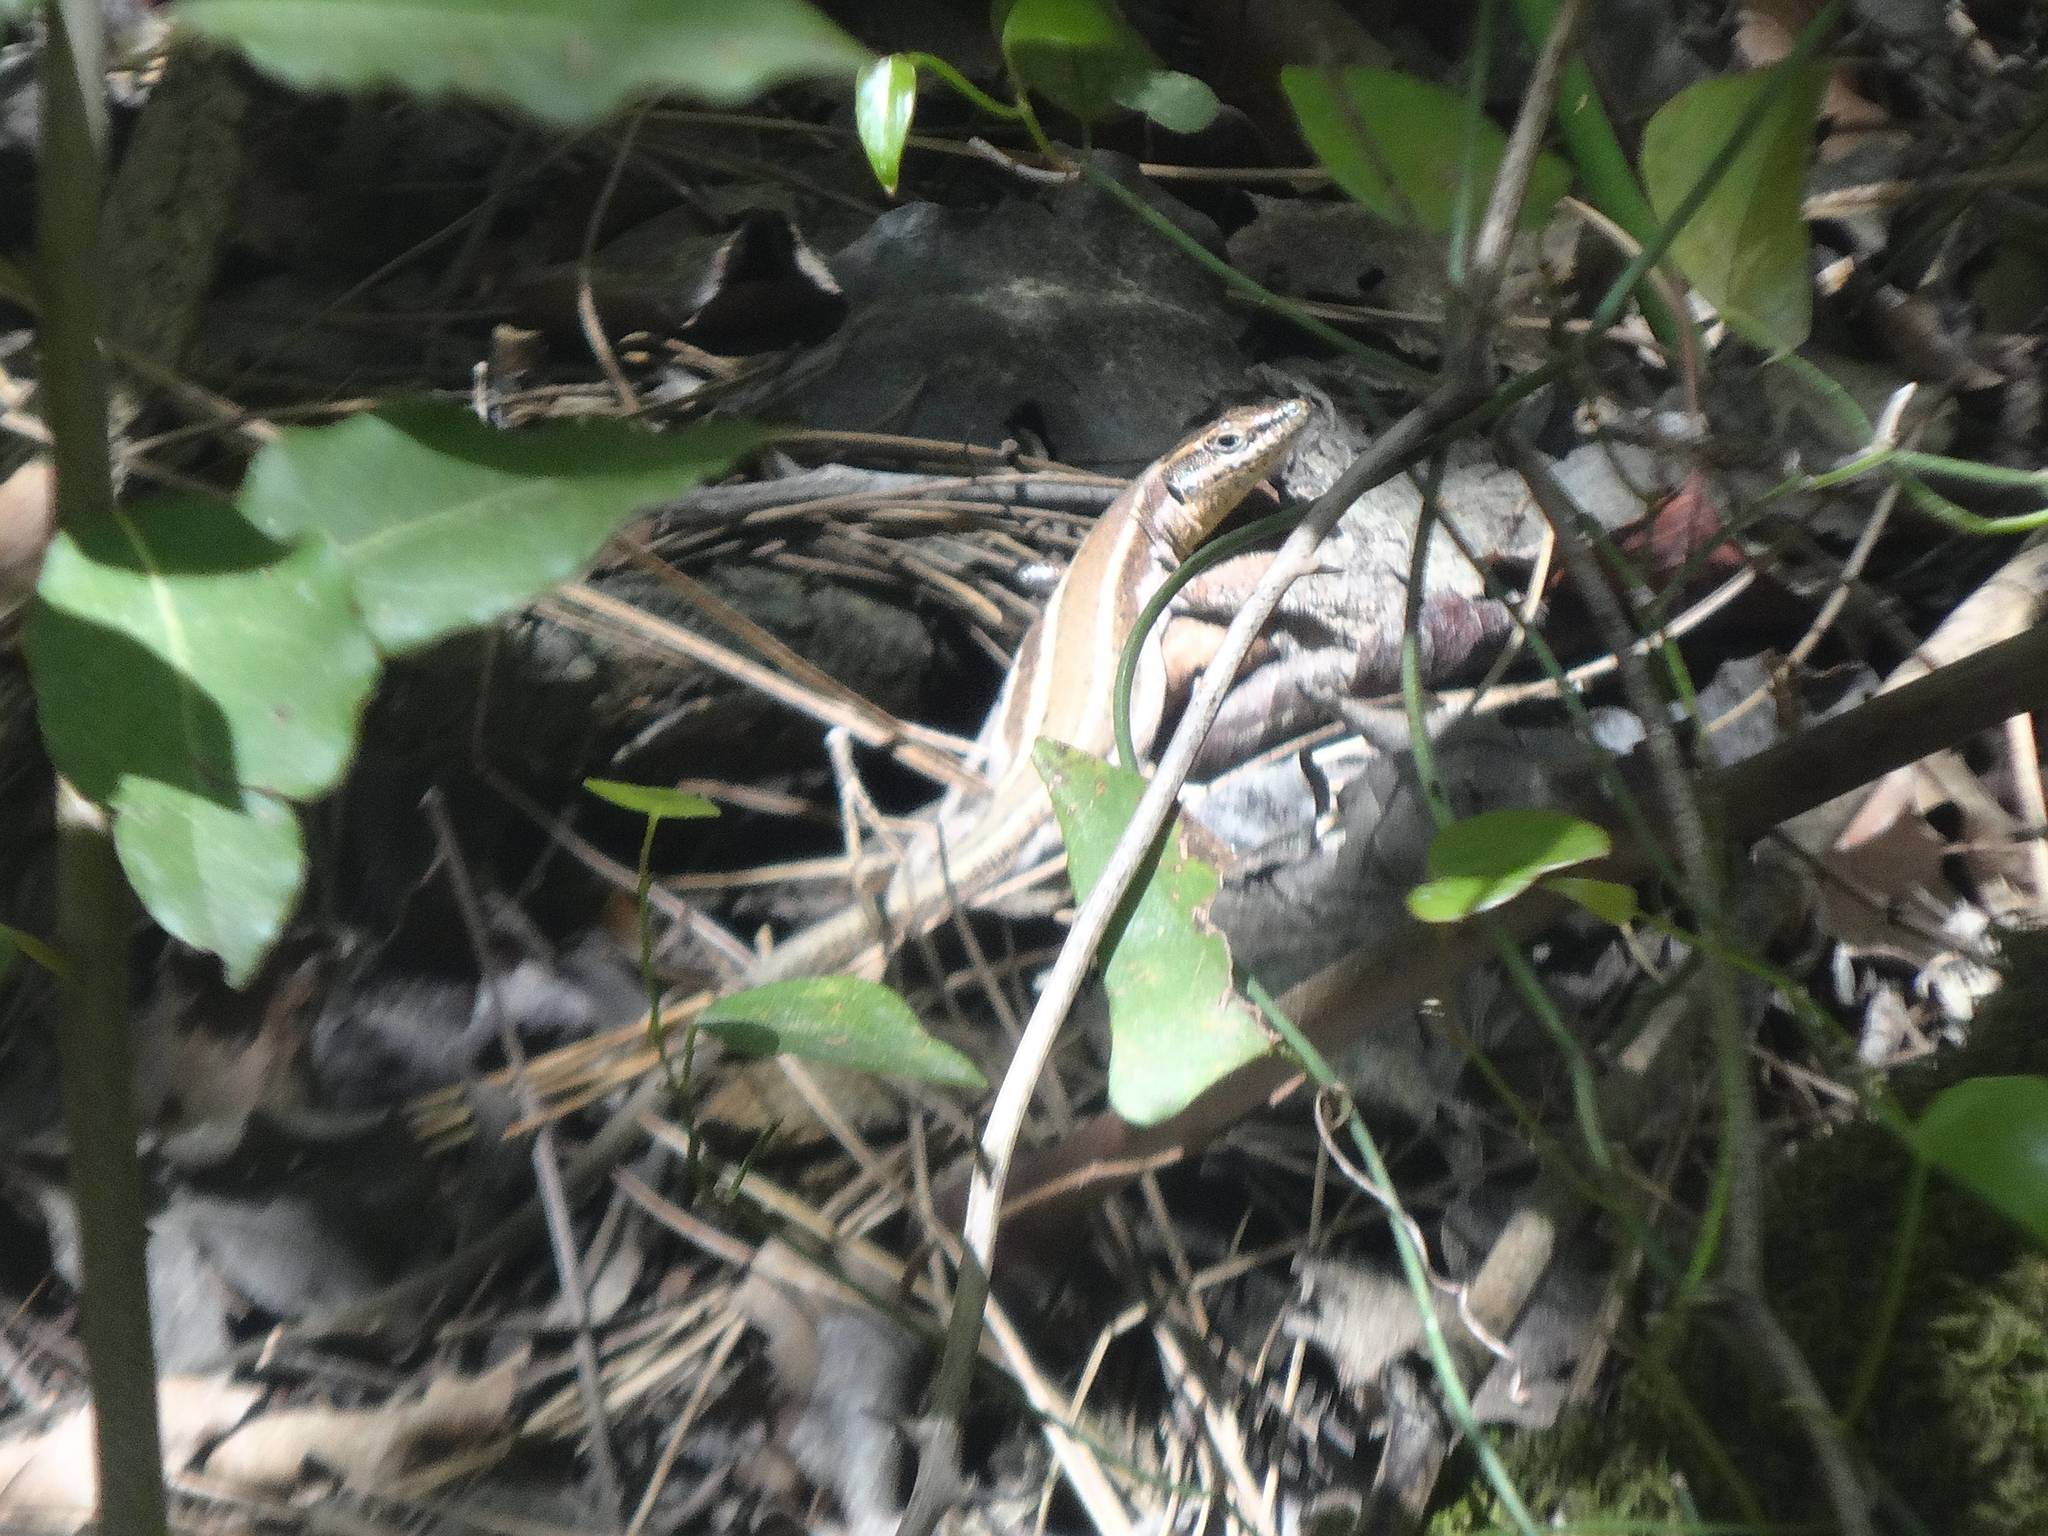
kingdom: Animalia
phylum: Chordata
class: Squamata
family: Lacertidae
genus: Anatololacerta
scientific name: Anatololacerta finikensis
